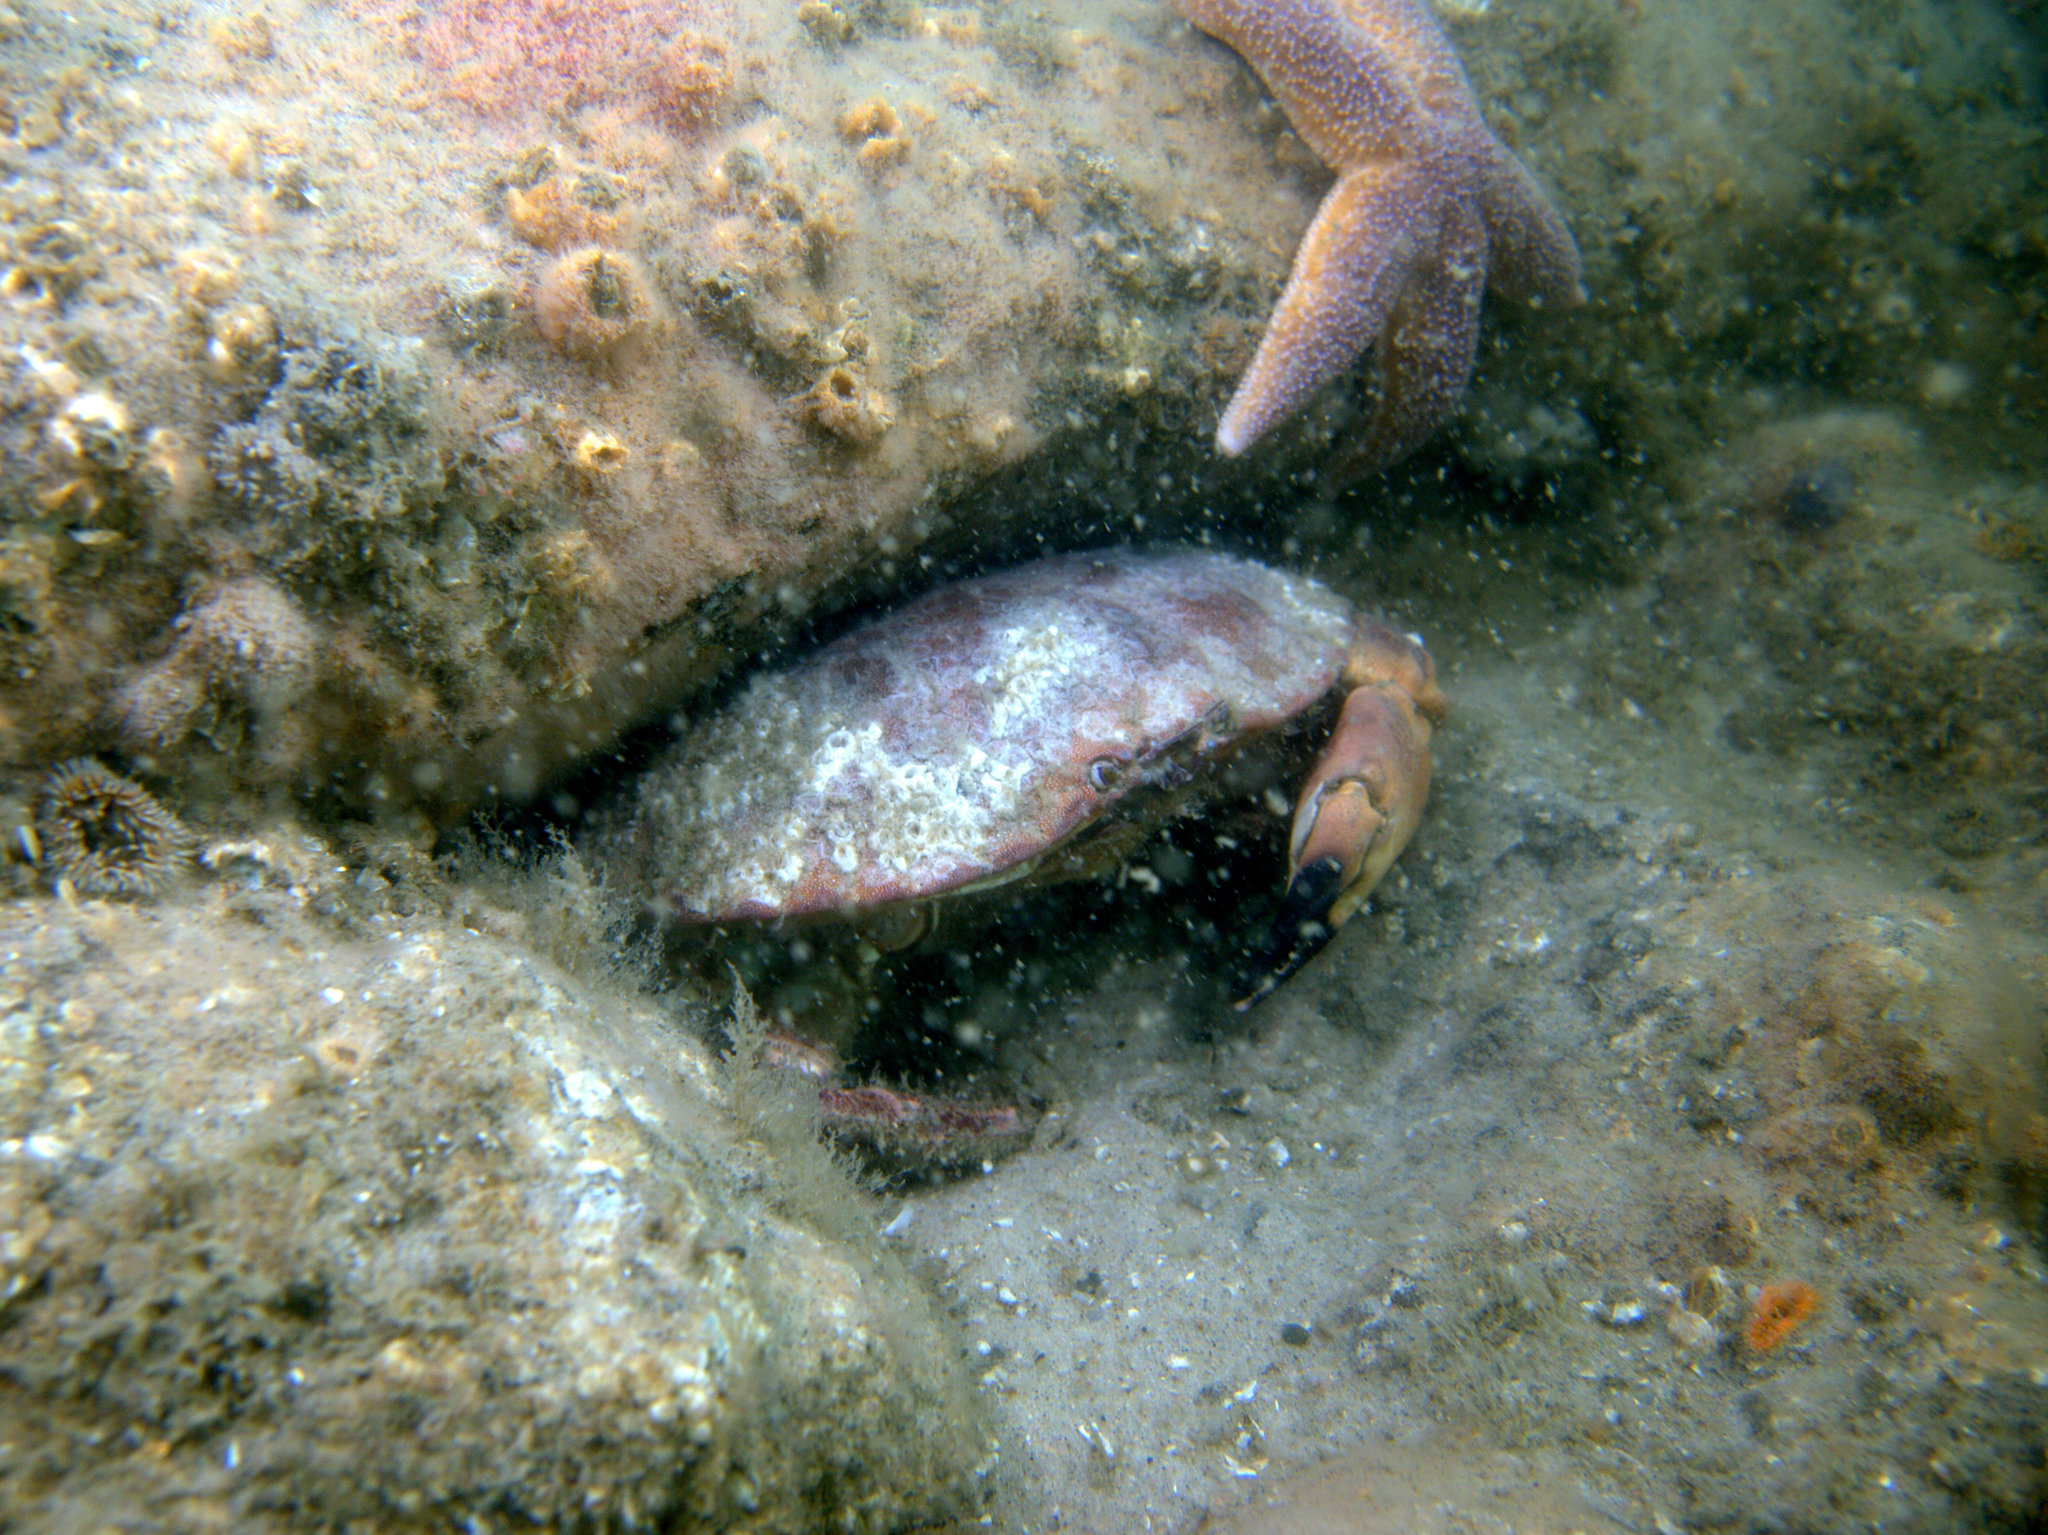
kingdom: Animalia
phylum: Arthropoda
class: Malacostraca
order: Decapoda
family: Cancridae
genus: Cancer
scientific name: Cancer pagurus
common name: Edible crab
